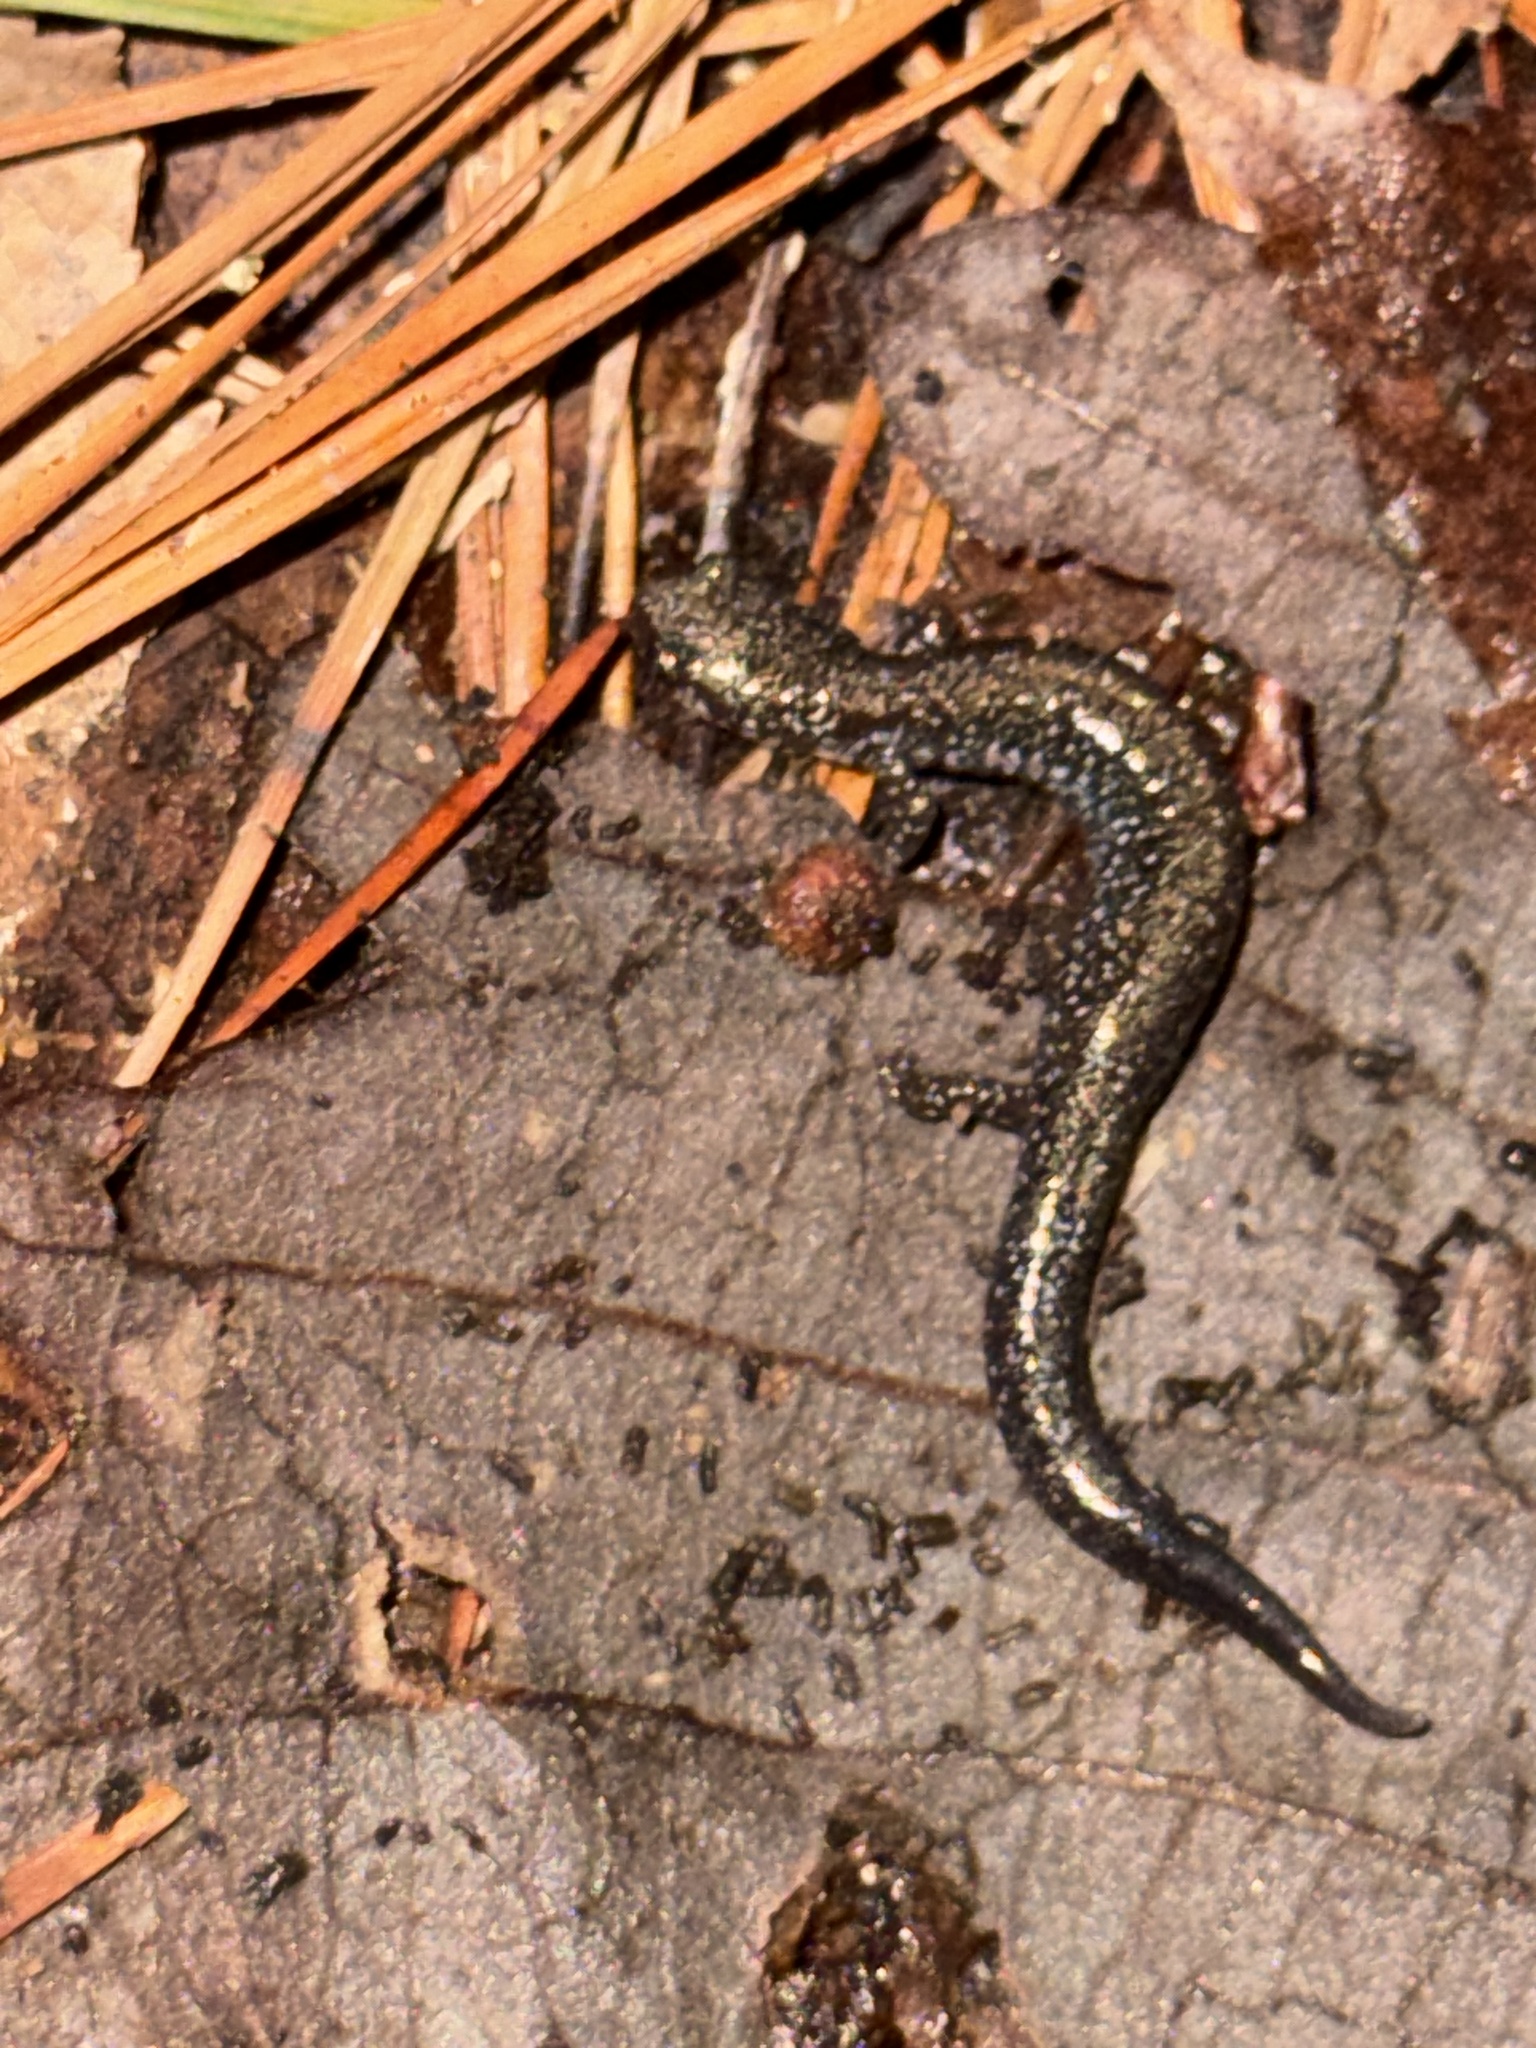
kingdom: Animalia
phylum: Chordata
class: Amphibia
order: Caudata
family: Plethodontidae
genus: Plethodon
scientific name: Plethodon cinereus
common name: Redback salamander
